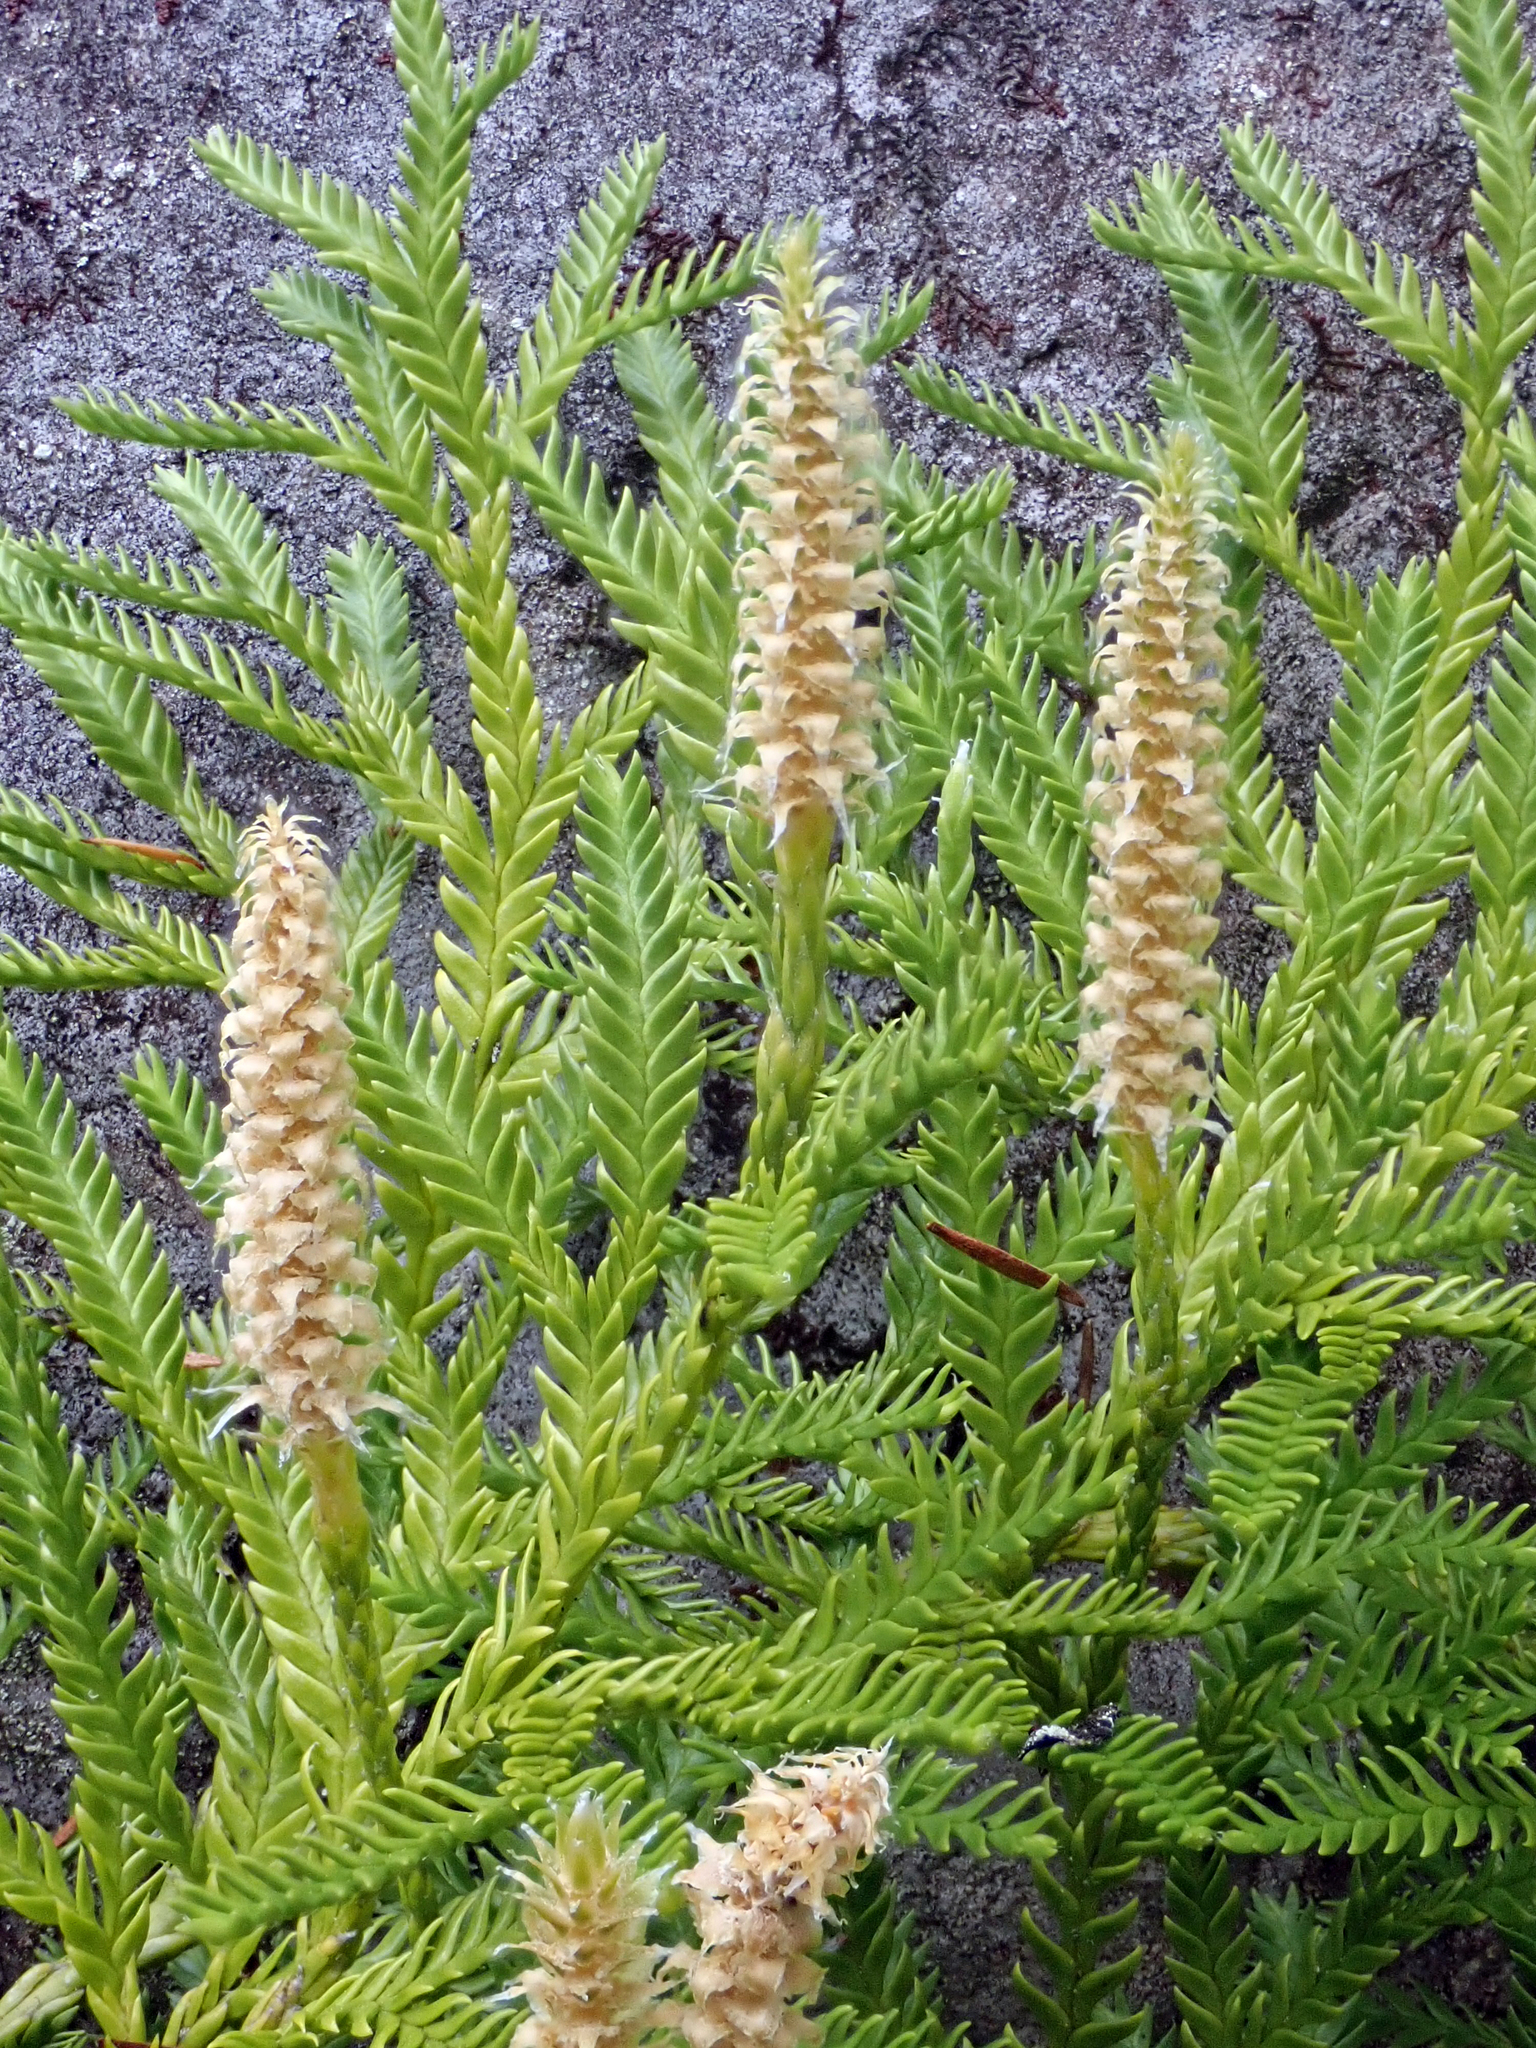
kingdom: Plantae
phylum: Tracheophyta
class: Lycopodiopsida
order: Lycopodiales
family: Lycopodiaceae
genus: Diphasium
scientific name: Diphasium scariosum
